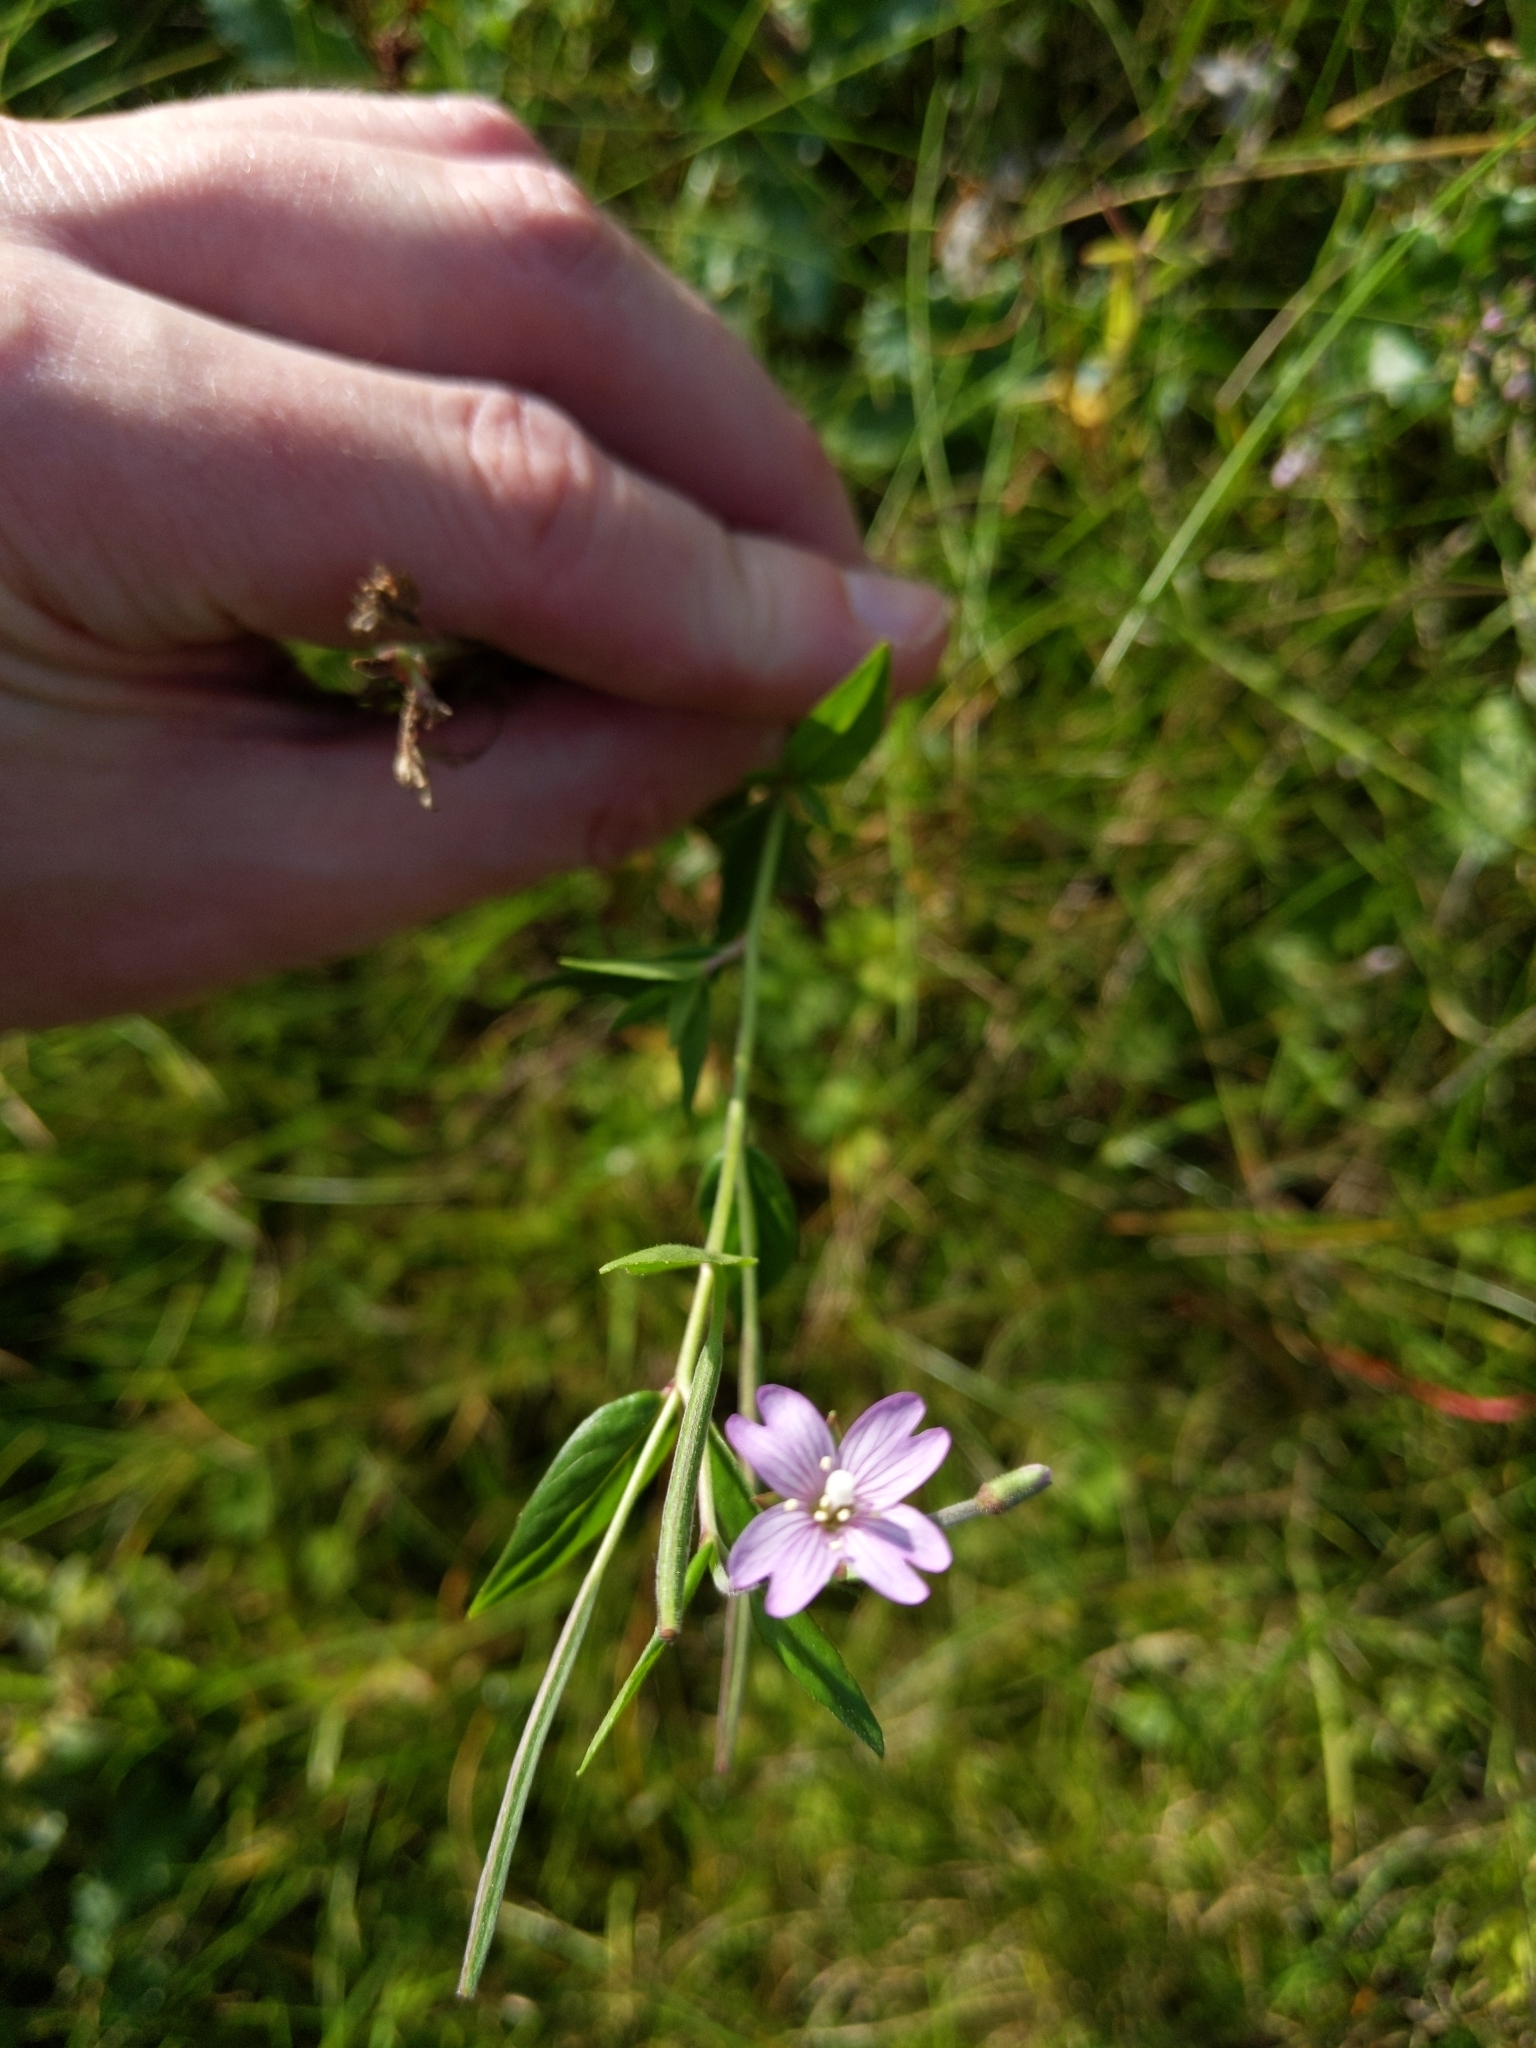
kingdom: Plantae
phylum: Tracheophyta
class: Magnoliopsida
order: Myrtales
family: Onagraceae
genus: Epilobium
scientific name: Epilobium ciliatum
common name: American willowherb
